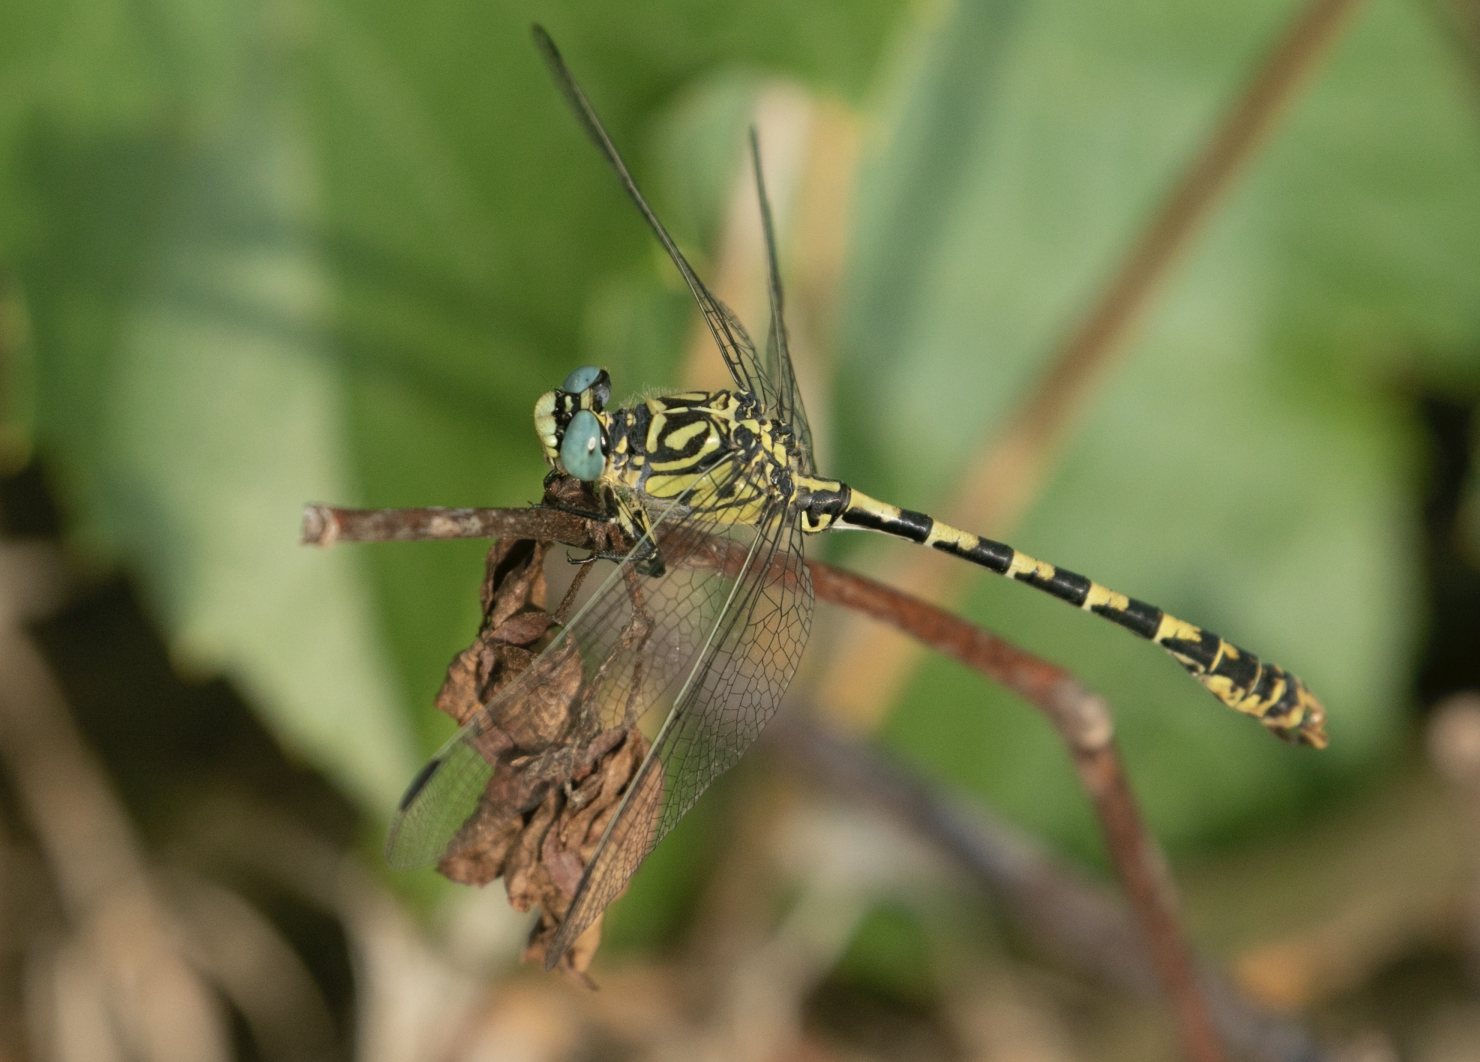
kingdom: Animalia
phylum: Arthropoda
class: Insecta
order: Odonata
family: Gomphidae
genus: Onychogomphus
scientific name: Onychogomphus forcipatus
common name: Small pincertail
